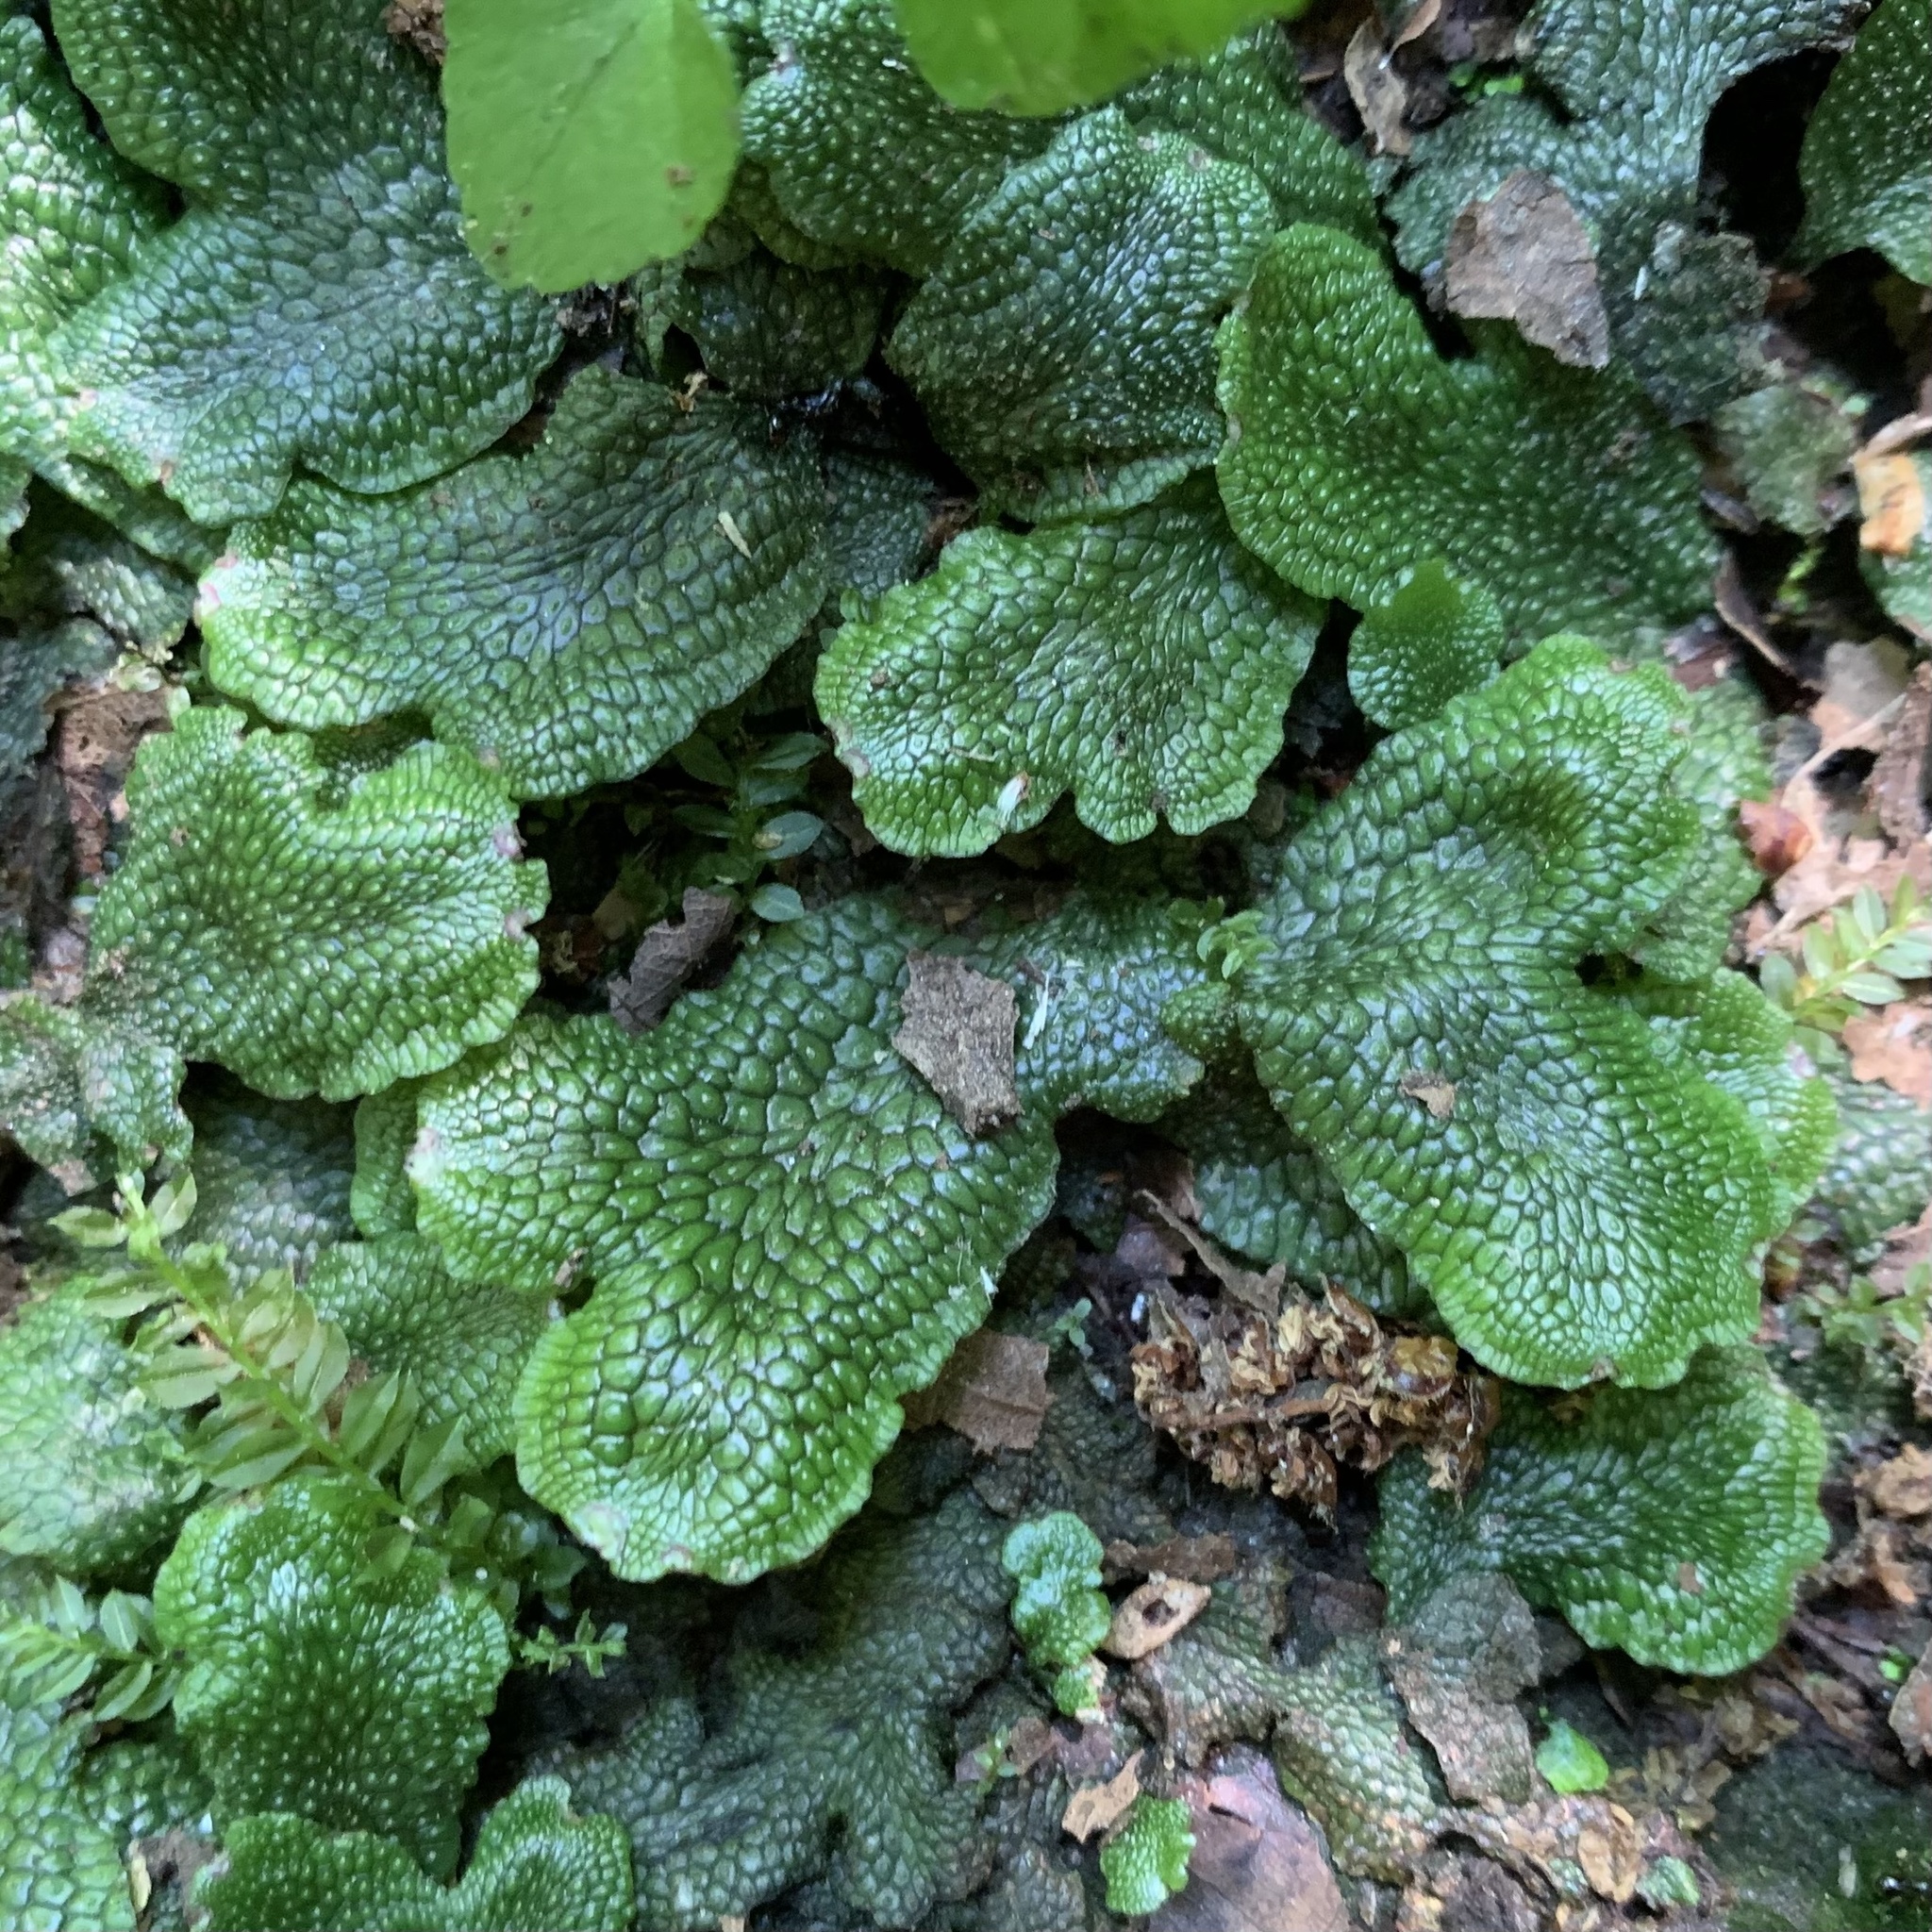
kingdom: Plantae
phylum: Marchantiophyta
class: Marchantiopsida
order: Marchantiales
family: Conocephalaceae
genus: Conocephalum
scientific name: Conocephalum salebrosum
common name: Cat-tongue liverwort
